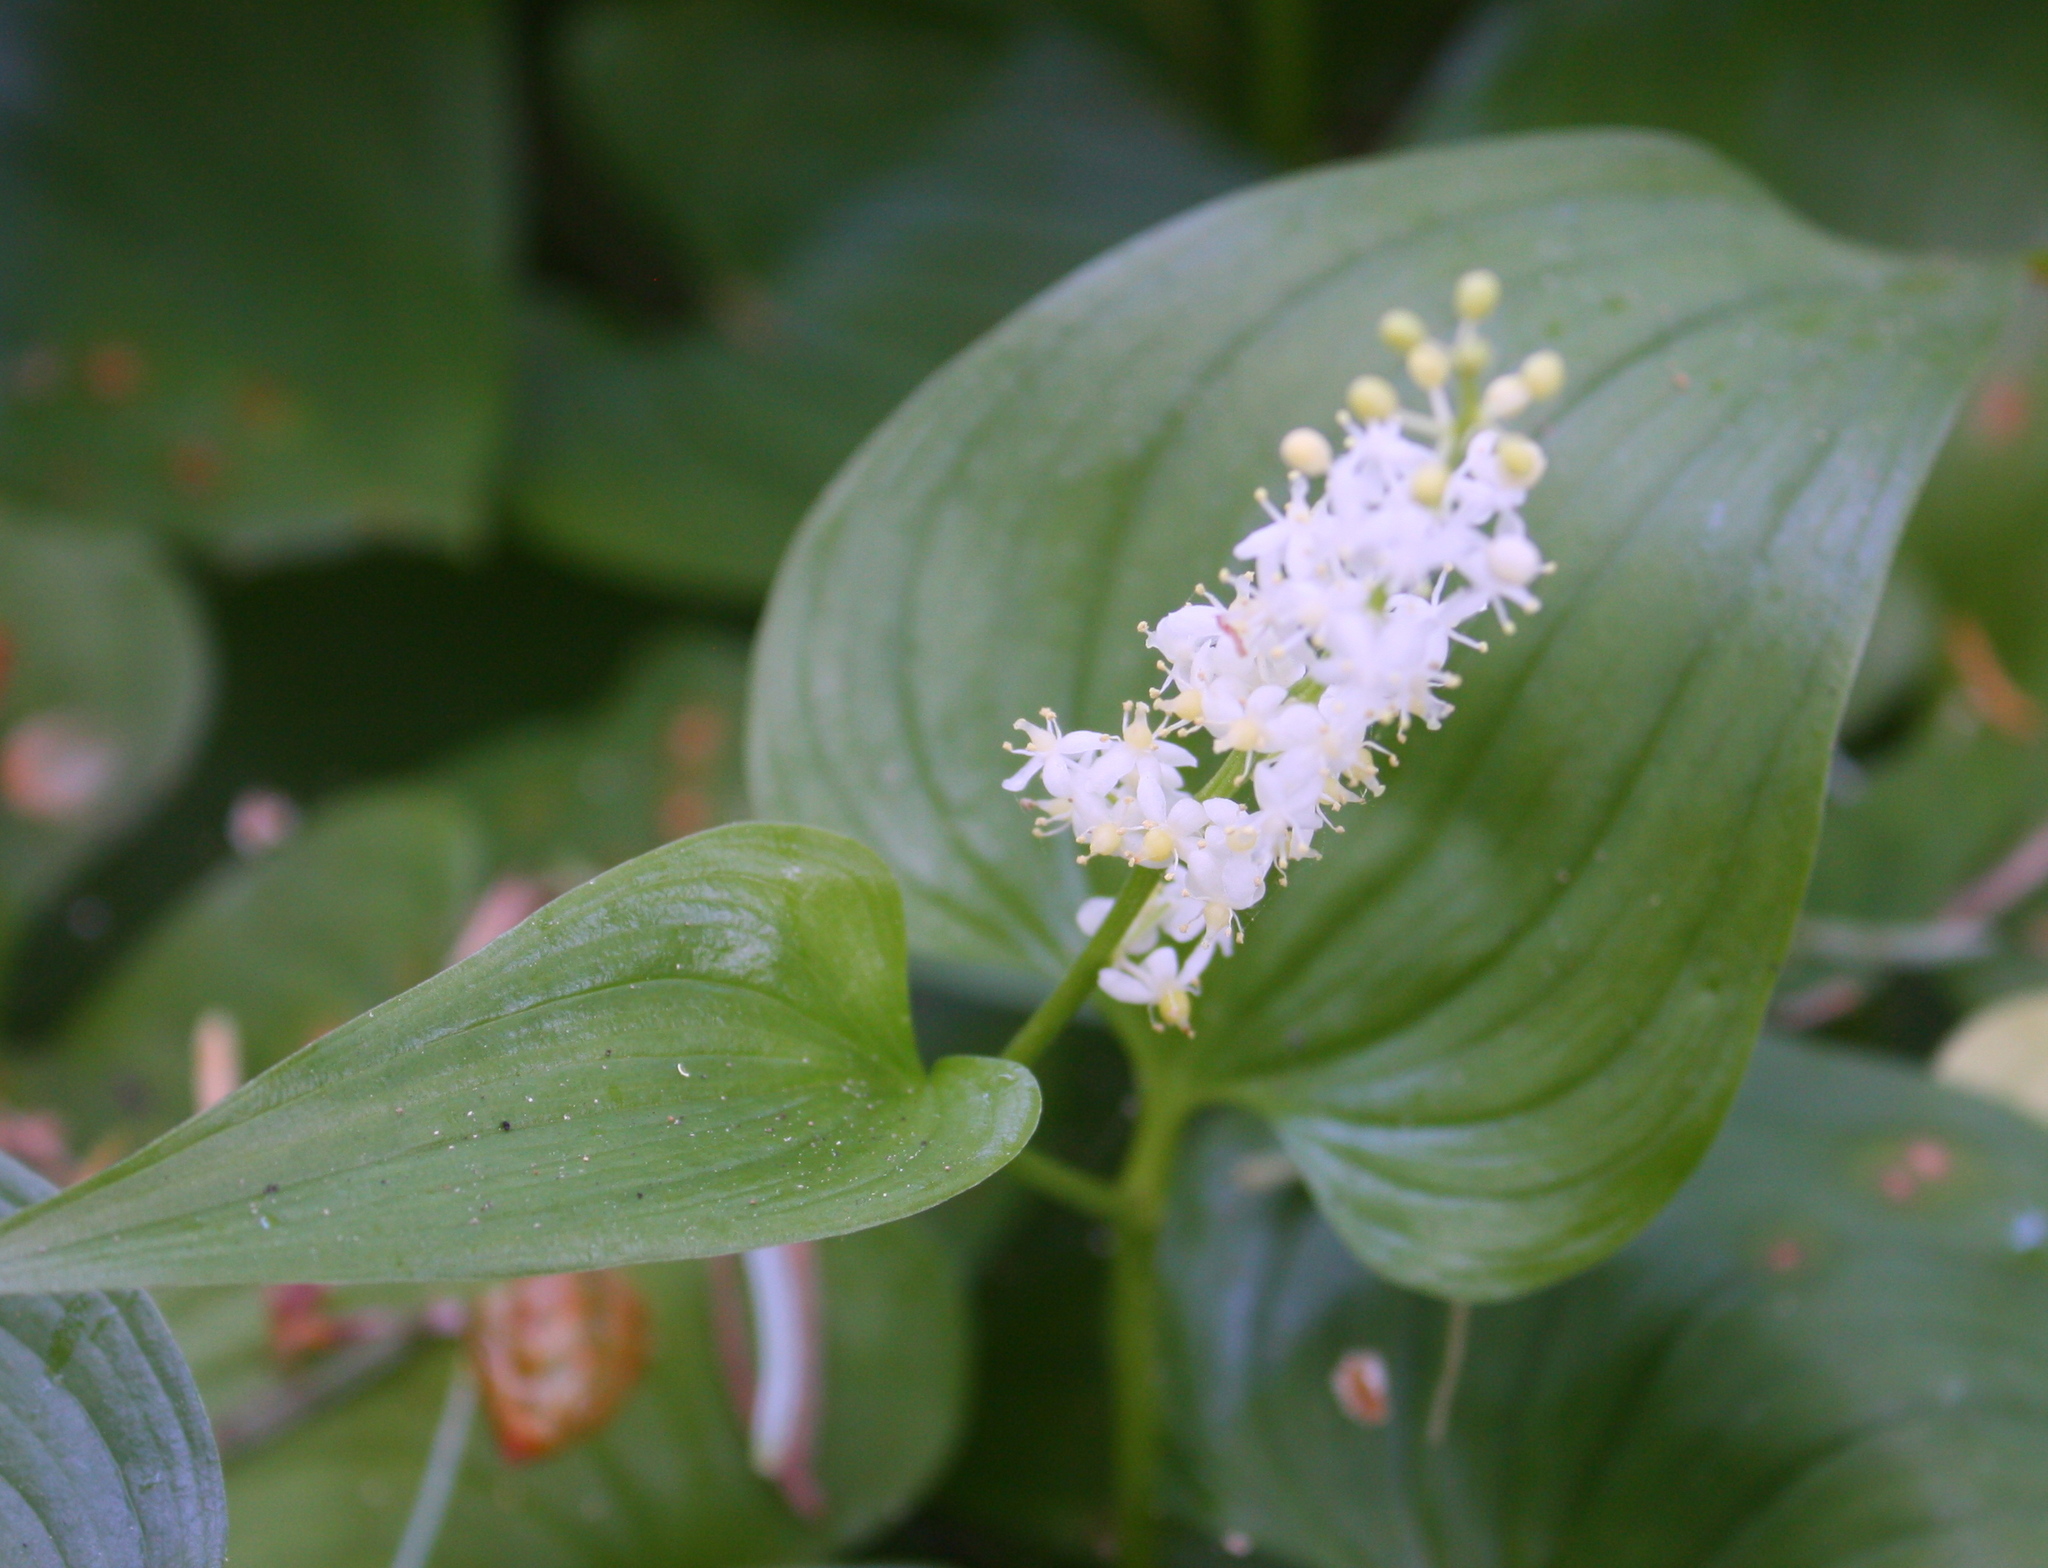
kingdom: Plantae
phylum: Tracheophyta
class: Liliopsida
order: Asparagales
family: Asparagaceae
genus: Maianthemum
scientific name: Maianthemum dilatatum
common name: False lily-of-the-valley
